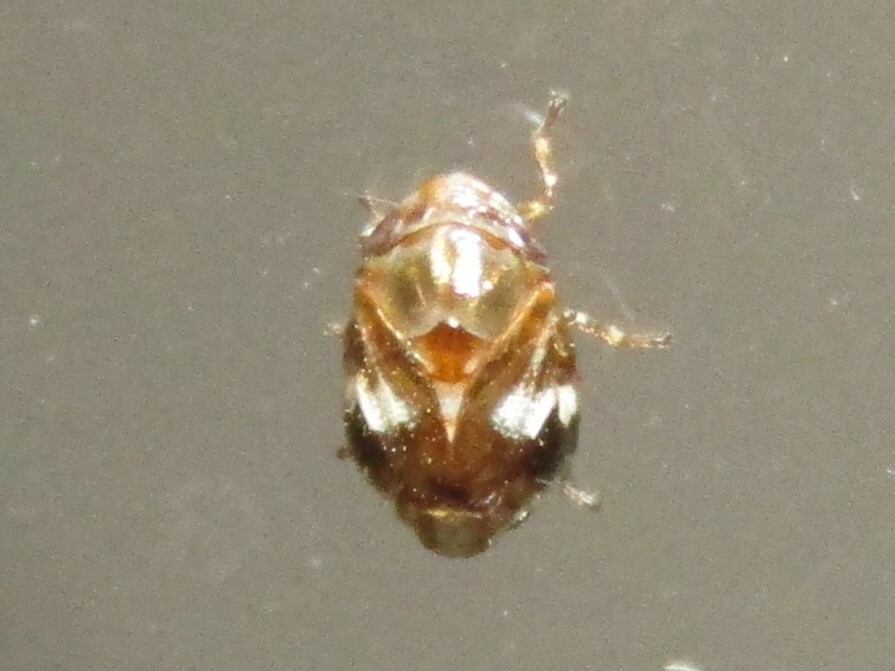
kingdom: Animalia
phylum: Arthropoda
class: Insecta
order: Hemiptera
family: Clastopteridae
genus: Clastoptera
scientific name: Clastoptera obtusa
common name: Alder spittlebug
